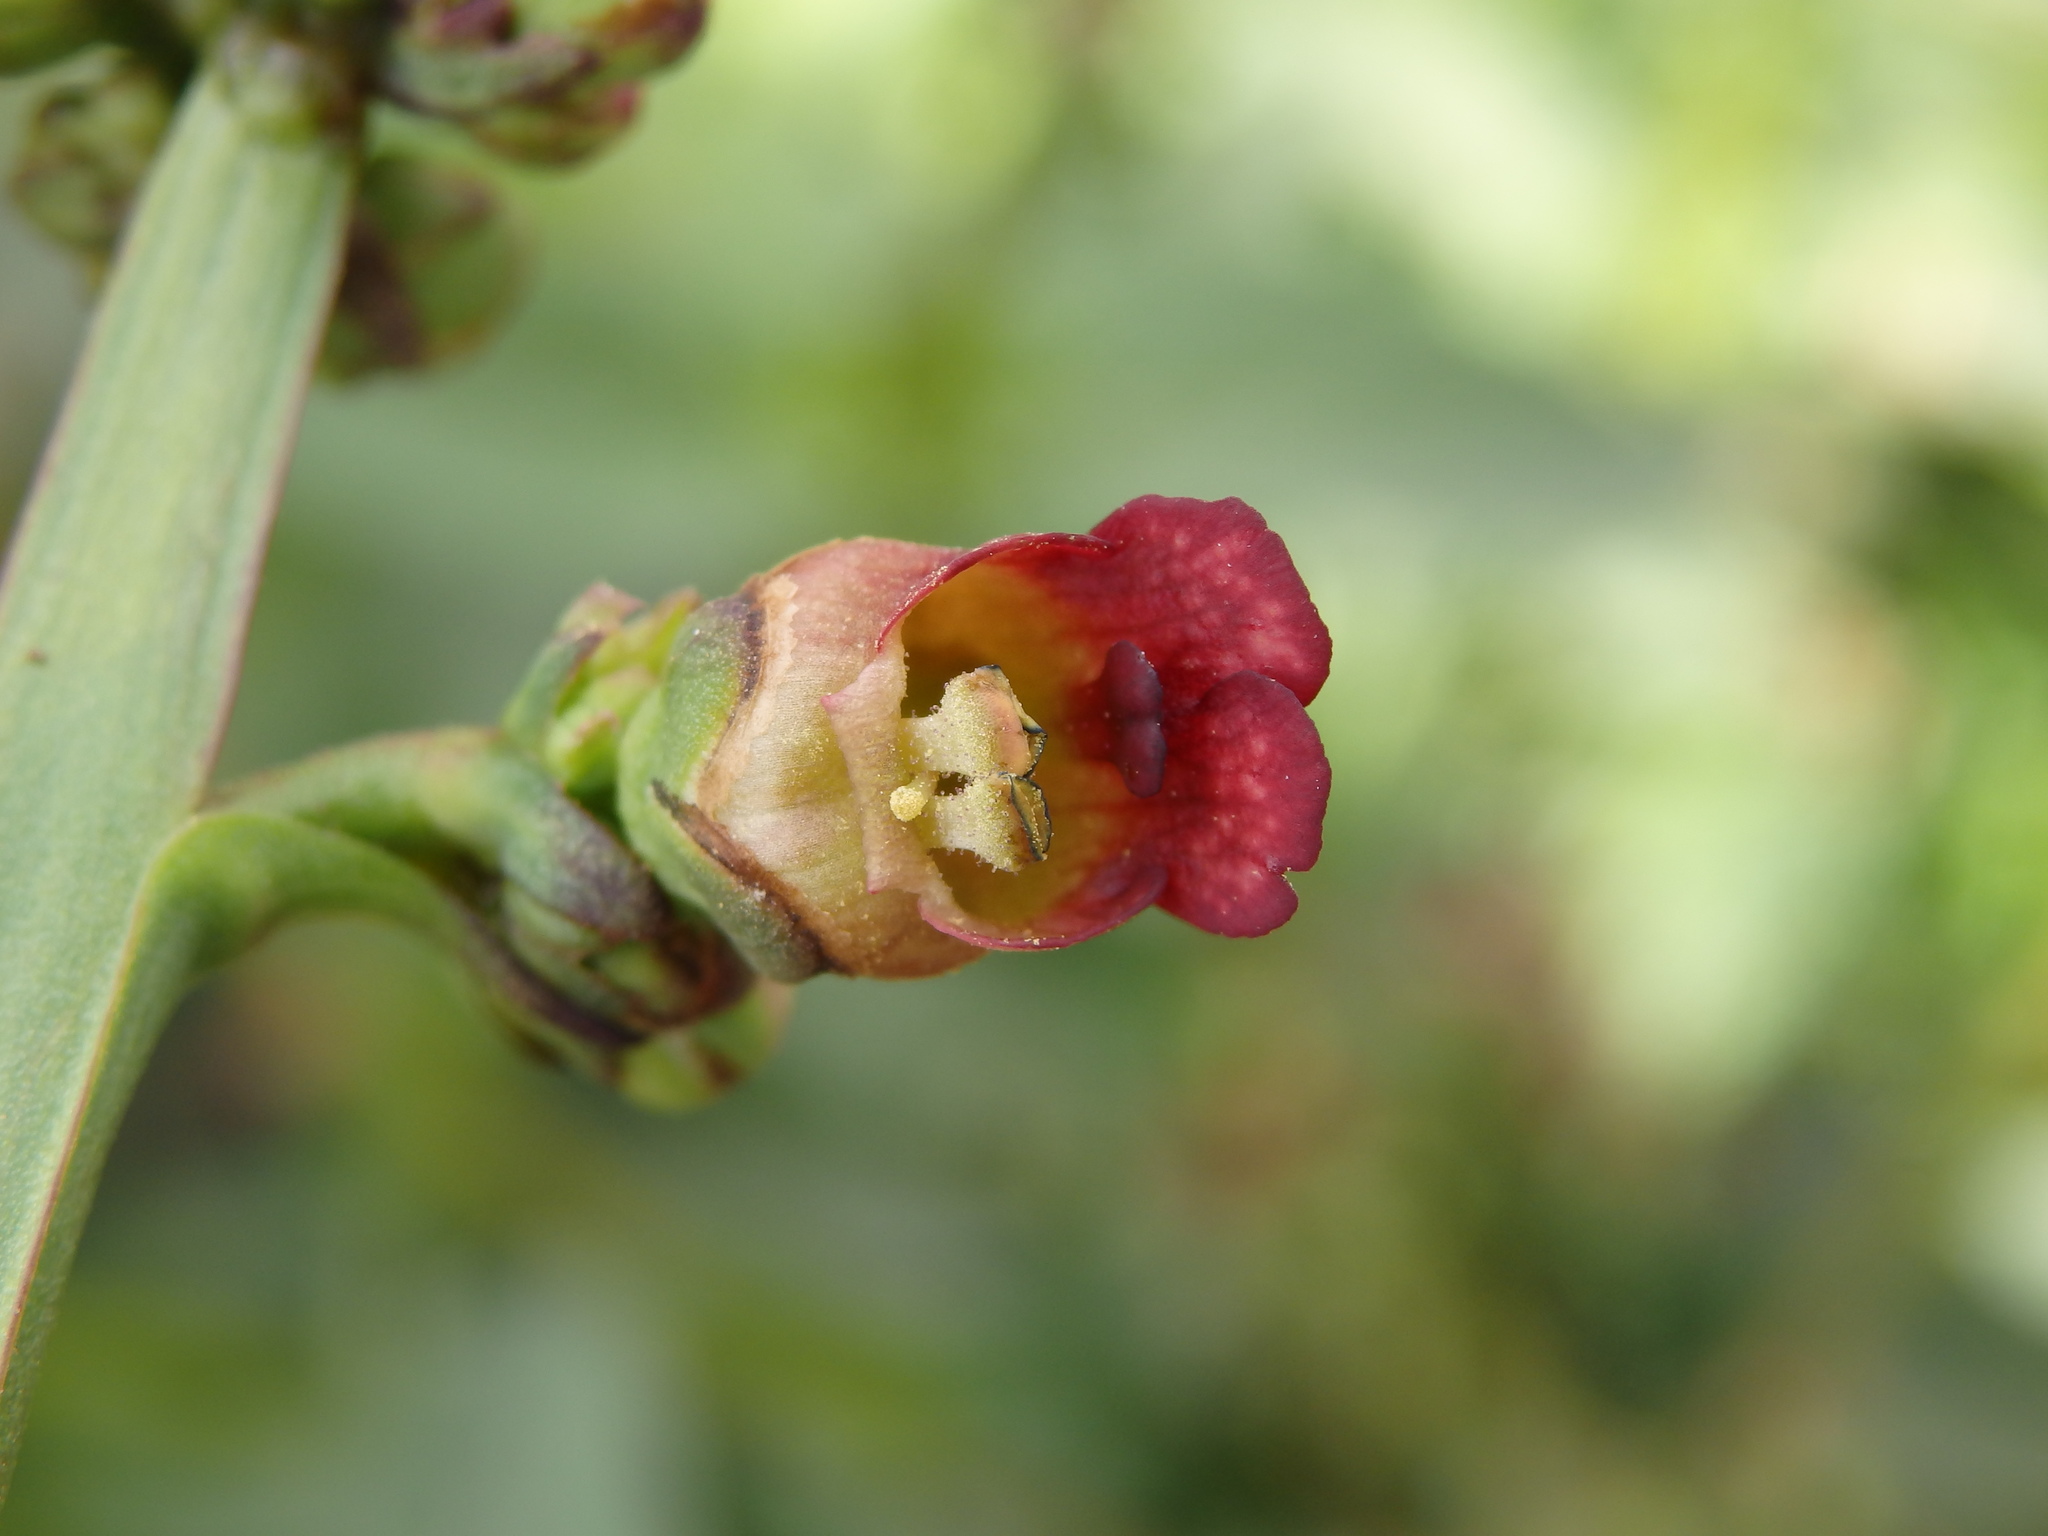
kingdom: Plantae
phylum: Tracheophyta
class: Magnoliopsida
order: Lamiales
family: Scrophulariaceae
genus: Scrophularia
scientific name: Scrophularia auriculata
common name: Water betony
